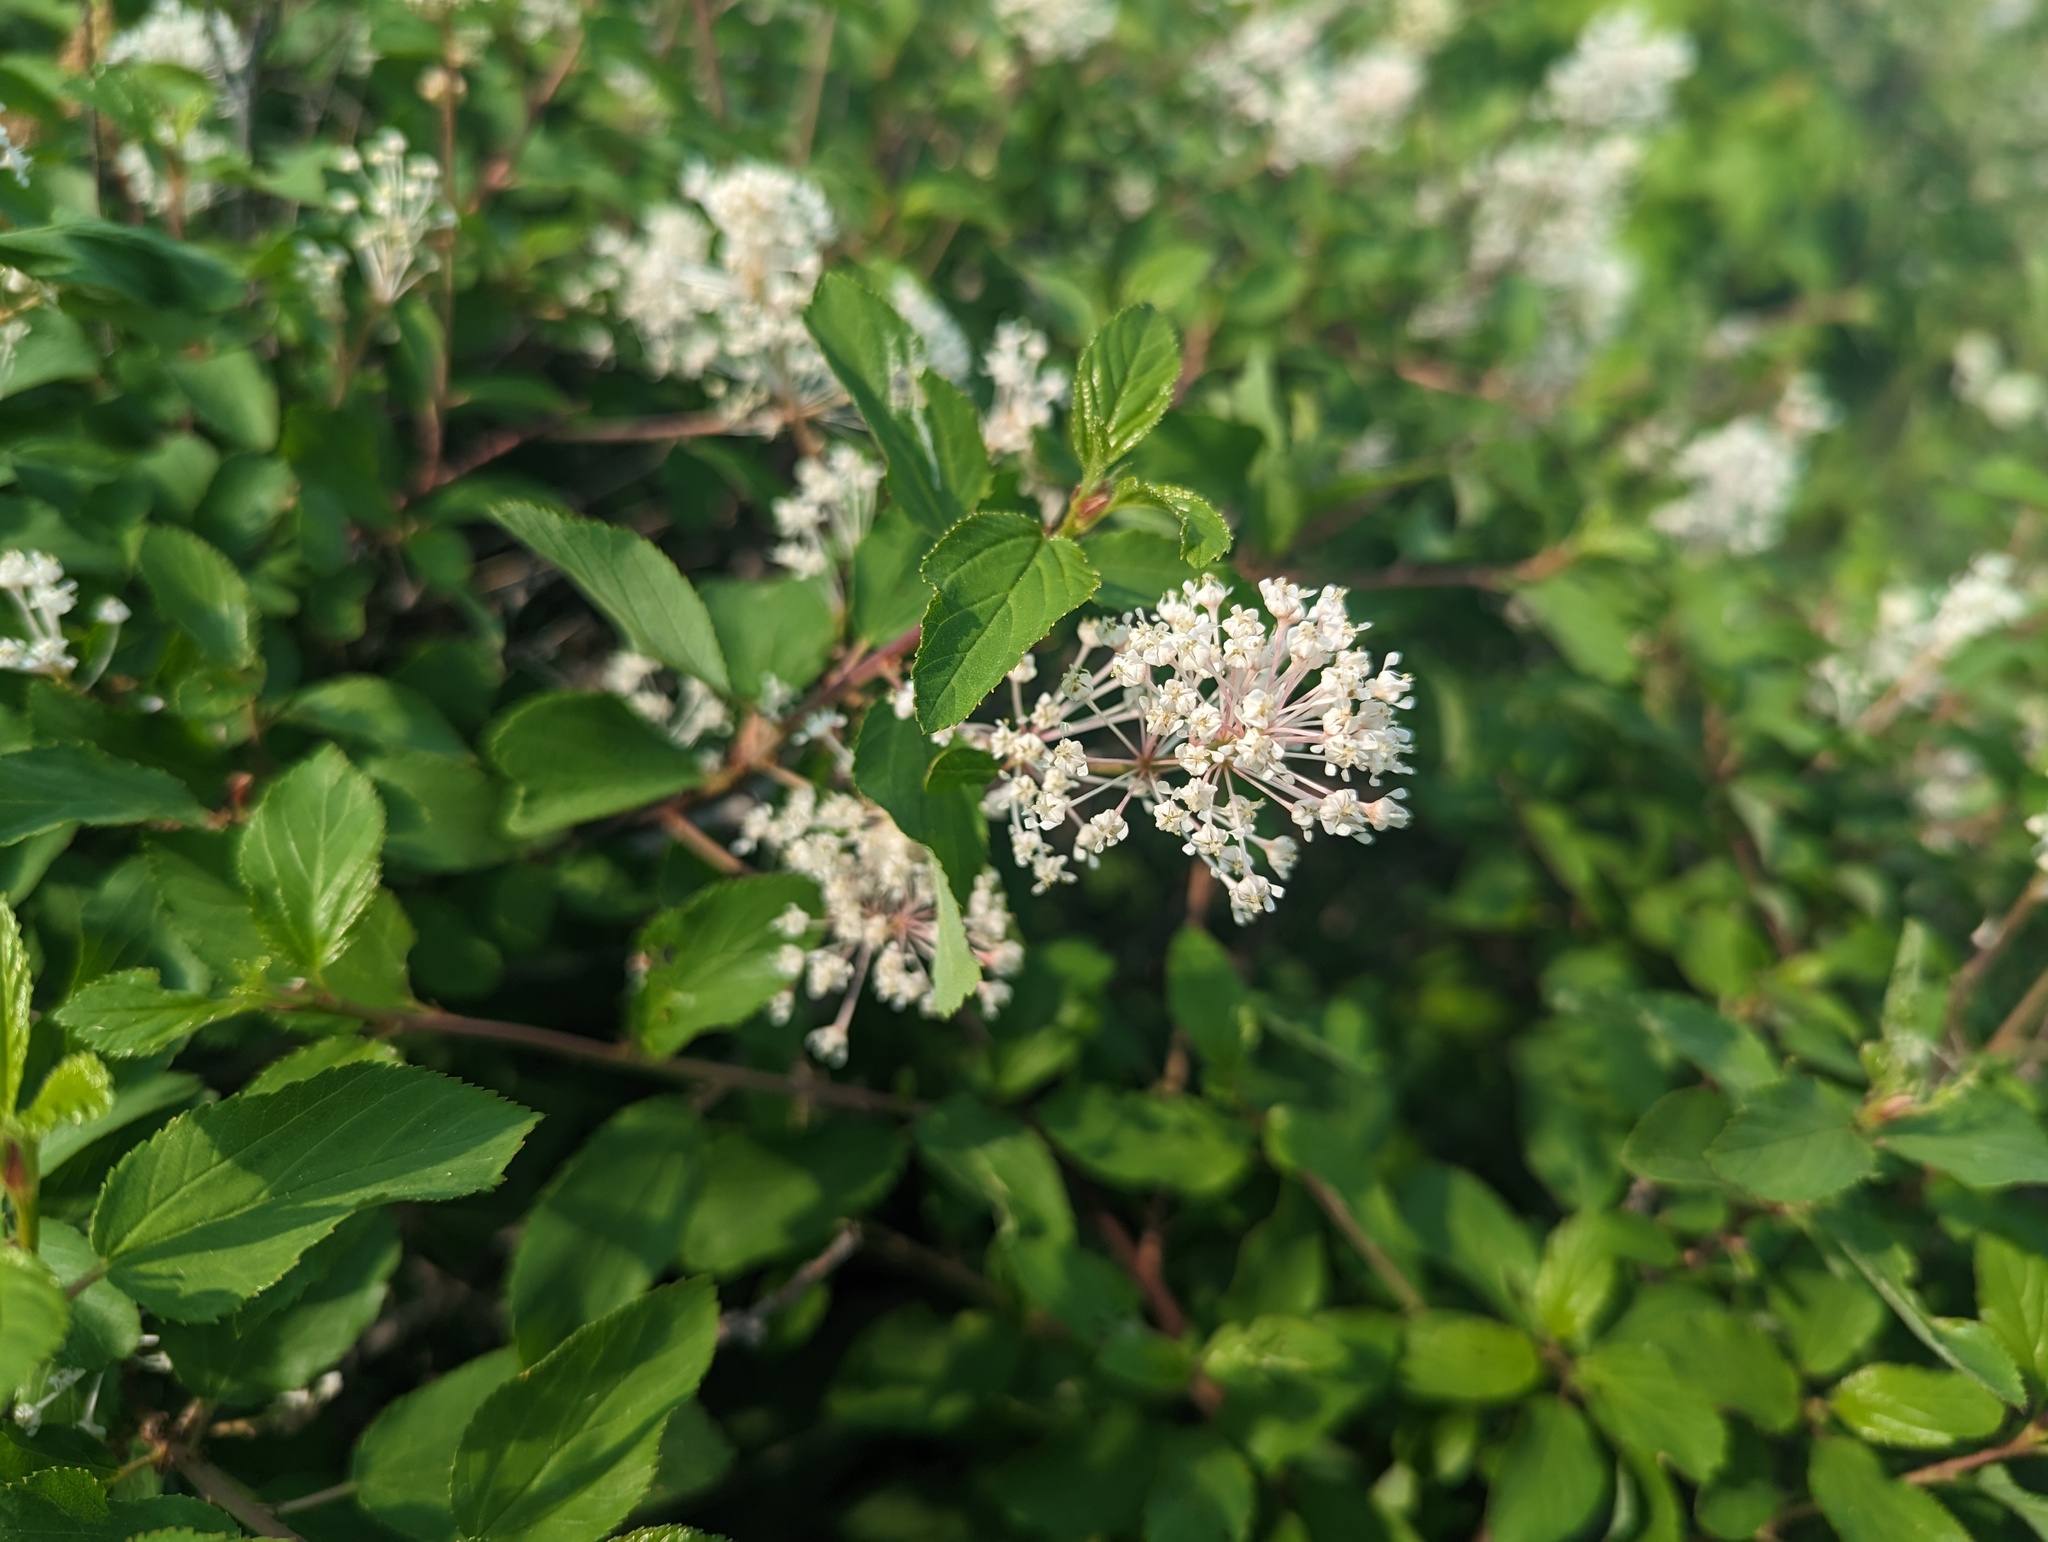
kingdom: Plantae
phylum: Tracheophyta
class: Magnoliopsida
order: Rosales
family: Rhamnaceae
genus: Ceanothus
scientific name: Ceanothus sanguineus
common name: Teatree
